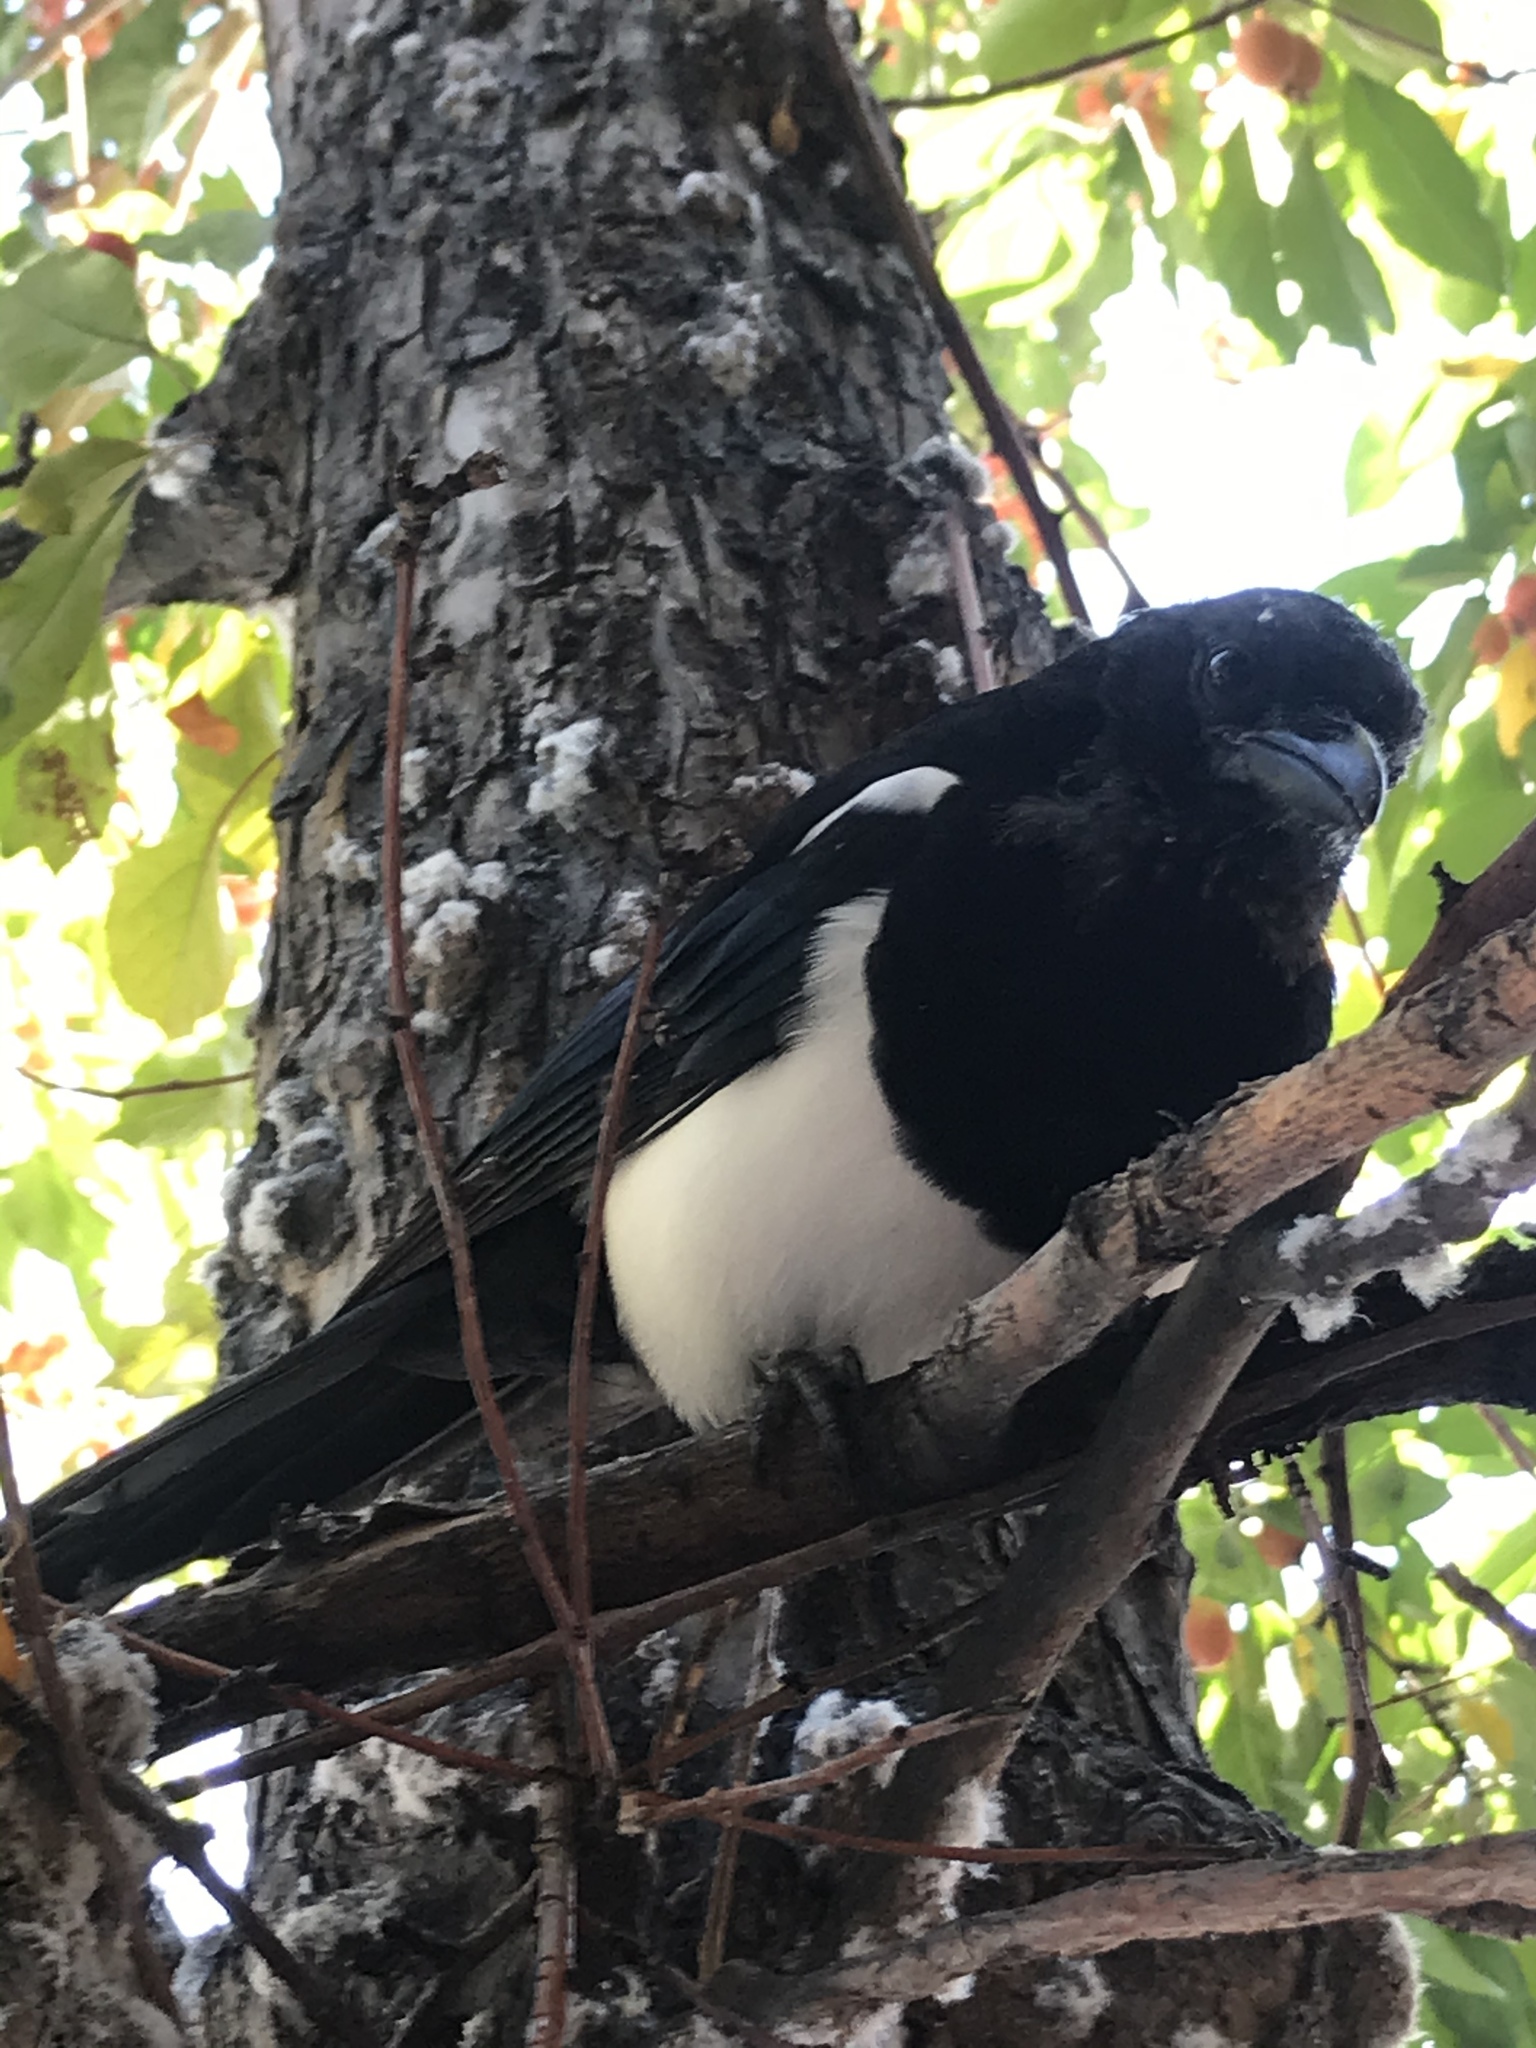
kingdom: Animalia
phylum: Chordata
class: Aves
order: Passeriformes
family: Corvidae
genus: Pica
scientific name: Pica hudsonia
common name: Black-billed magpie
